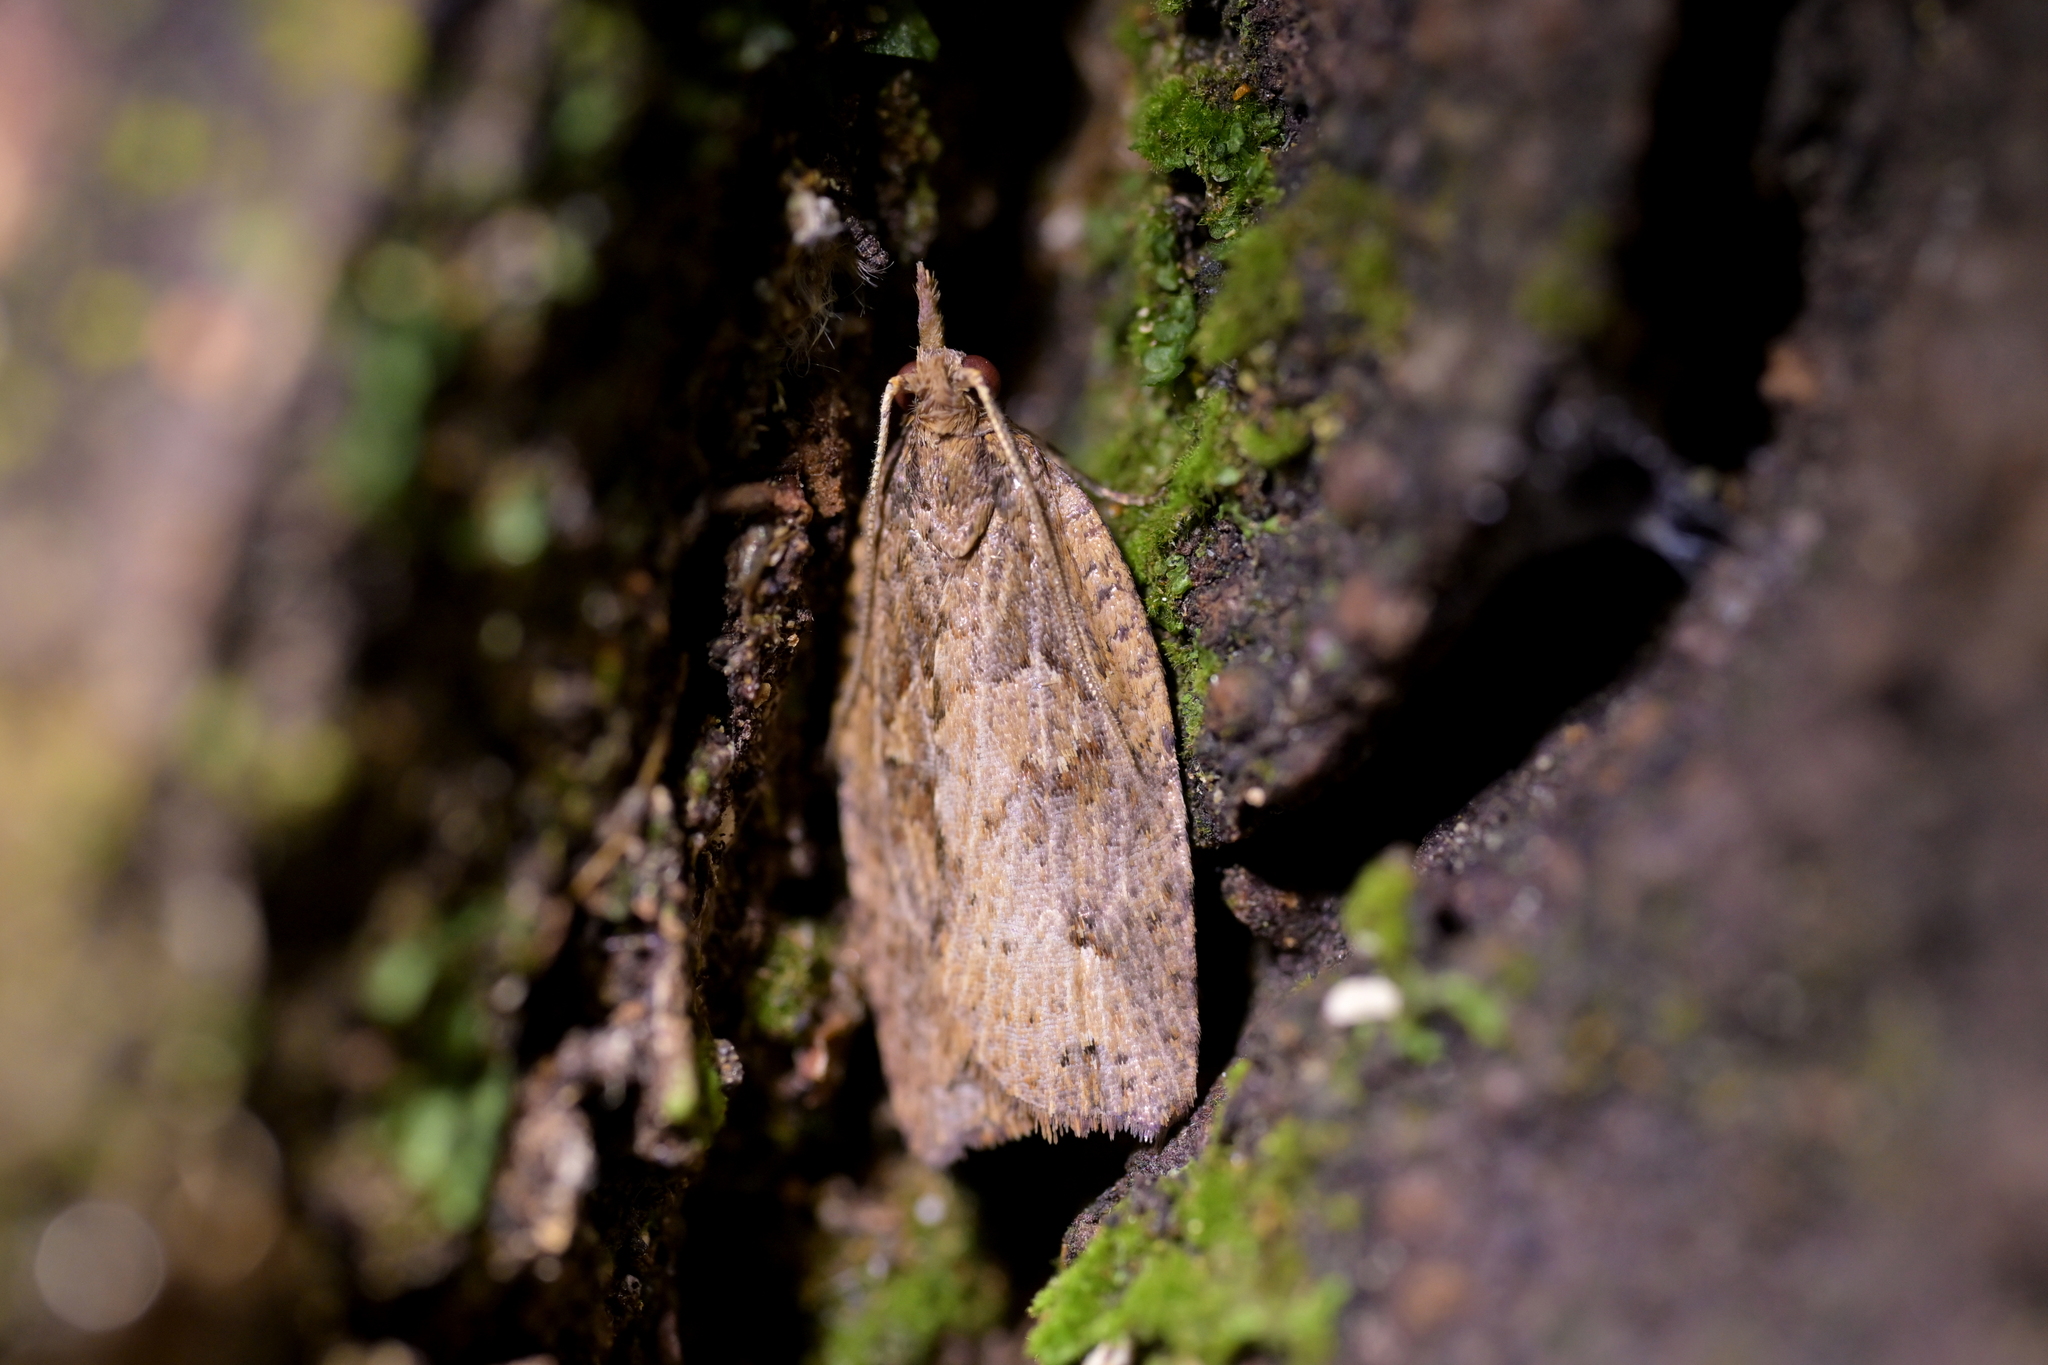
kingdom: Animalia
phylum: Arthropoda
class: Insecta
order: Lepidoptera
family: Tortricidae
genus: Planotortrix
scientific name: Planotortrix notophaea
